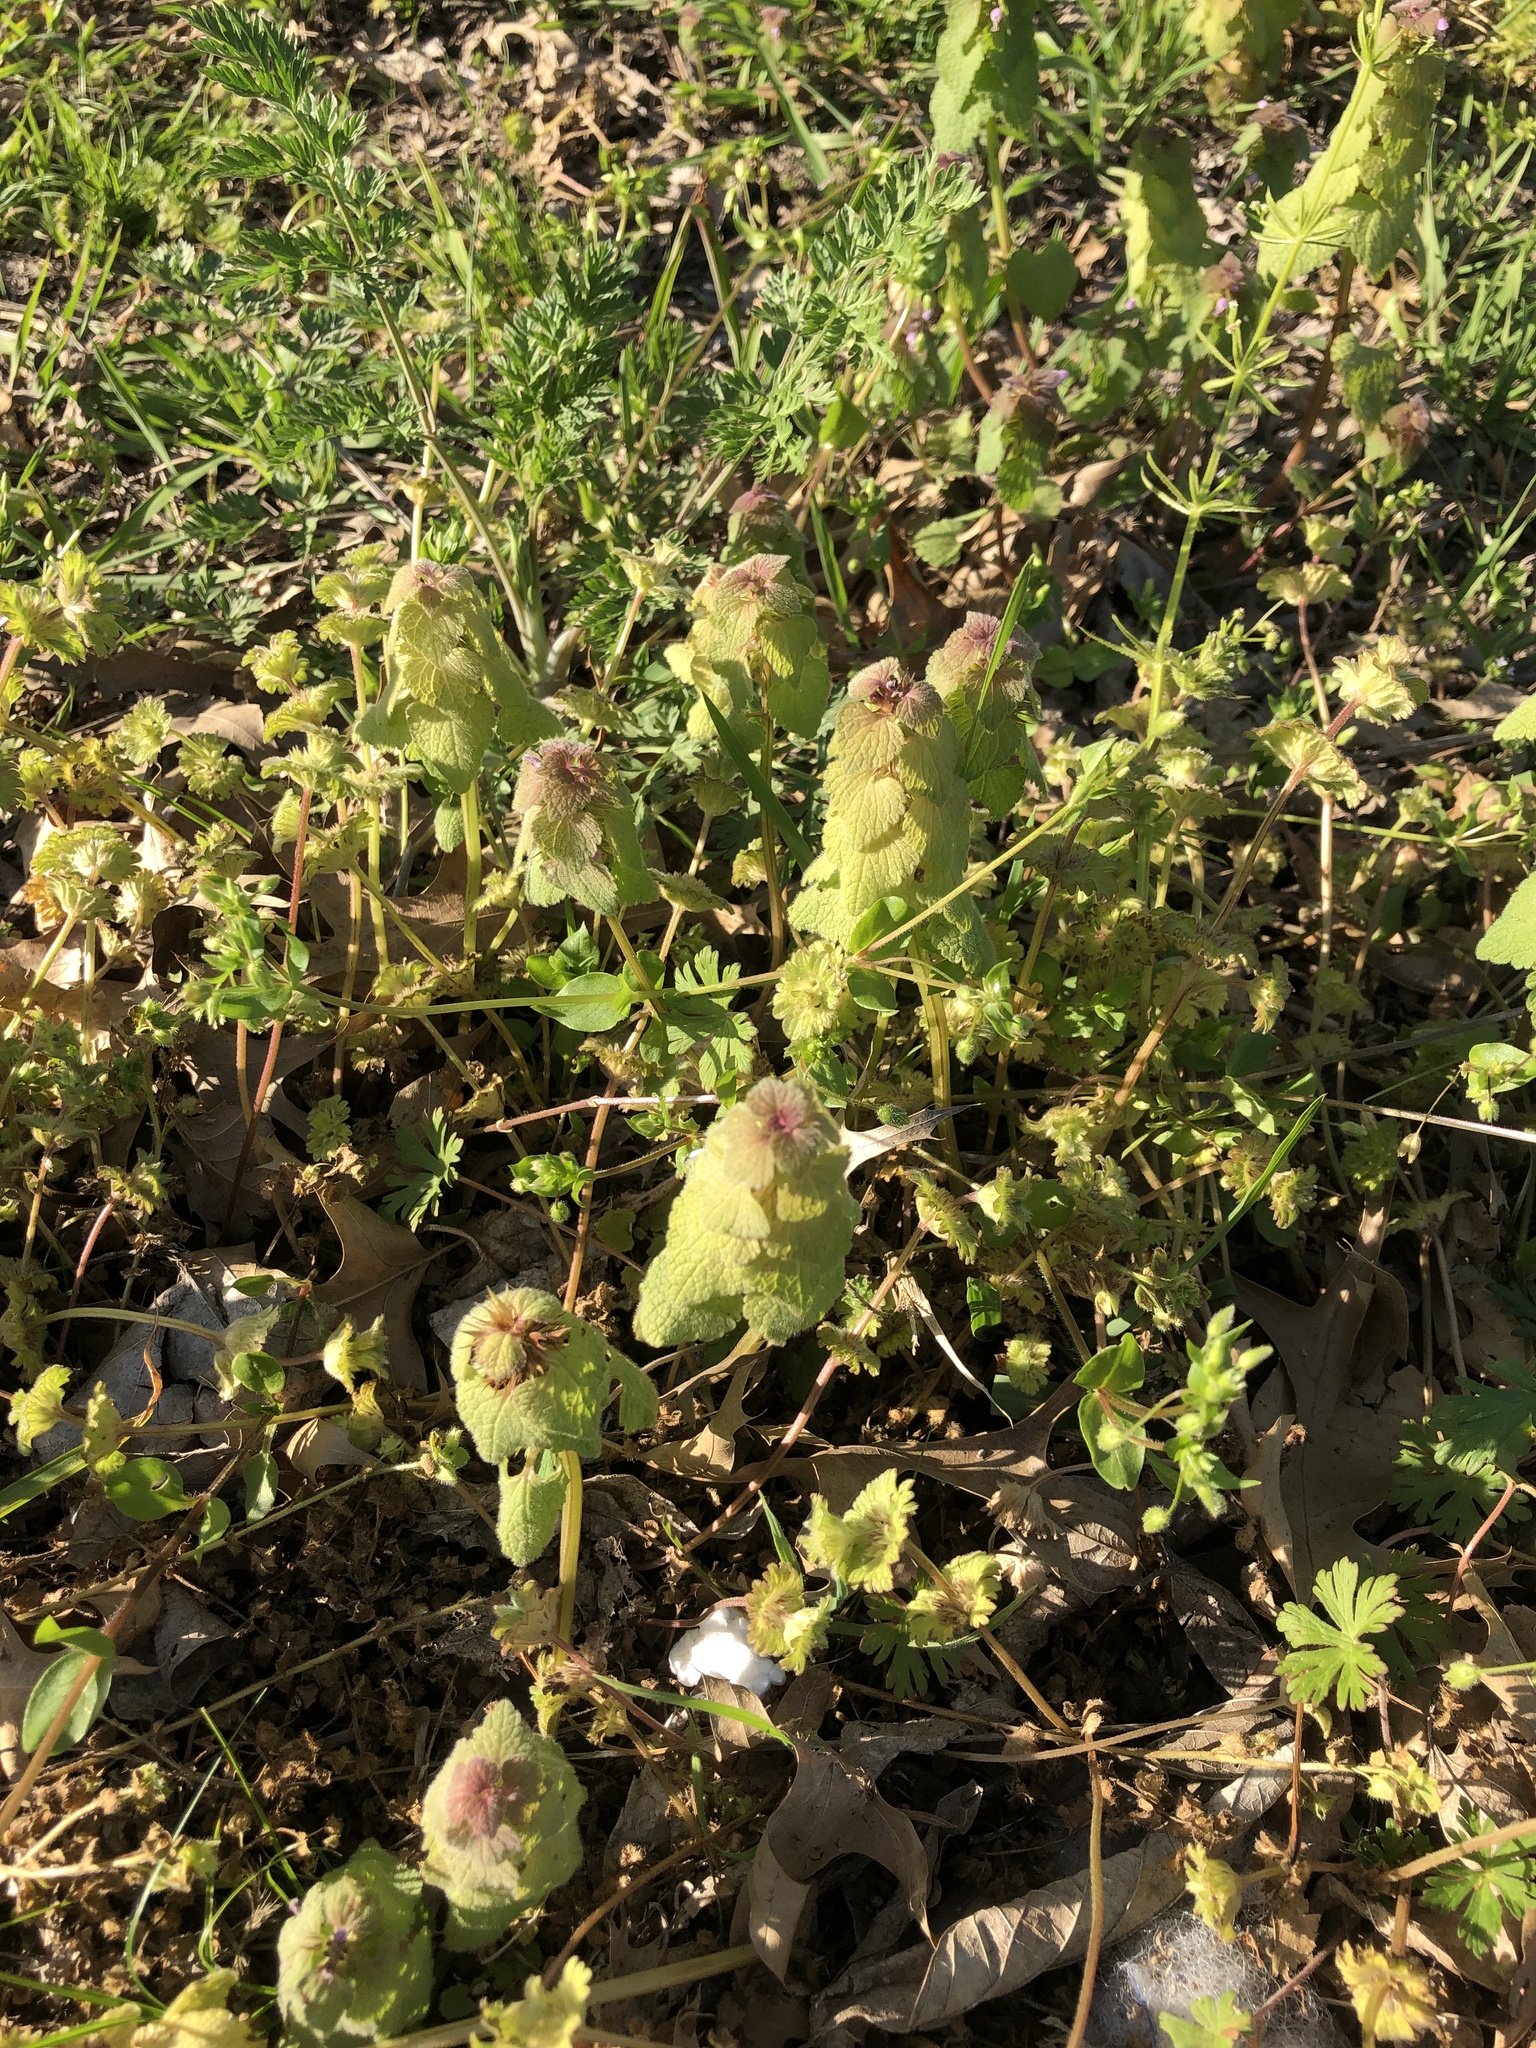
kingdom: Plantae
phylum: Tracheophyta
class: Magnoliopsida
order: Lamiales
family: Lamiaceae
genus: Lamium
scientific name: Lamium purpureum
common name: Red dead-nettle
